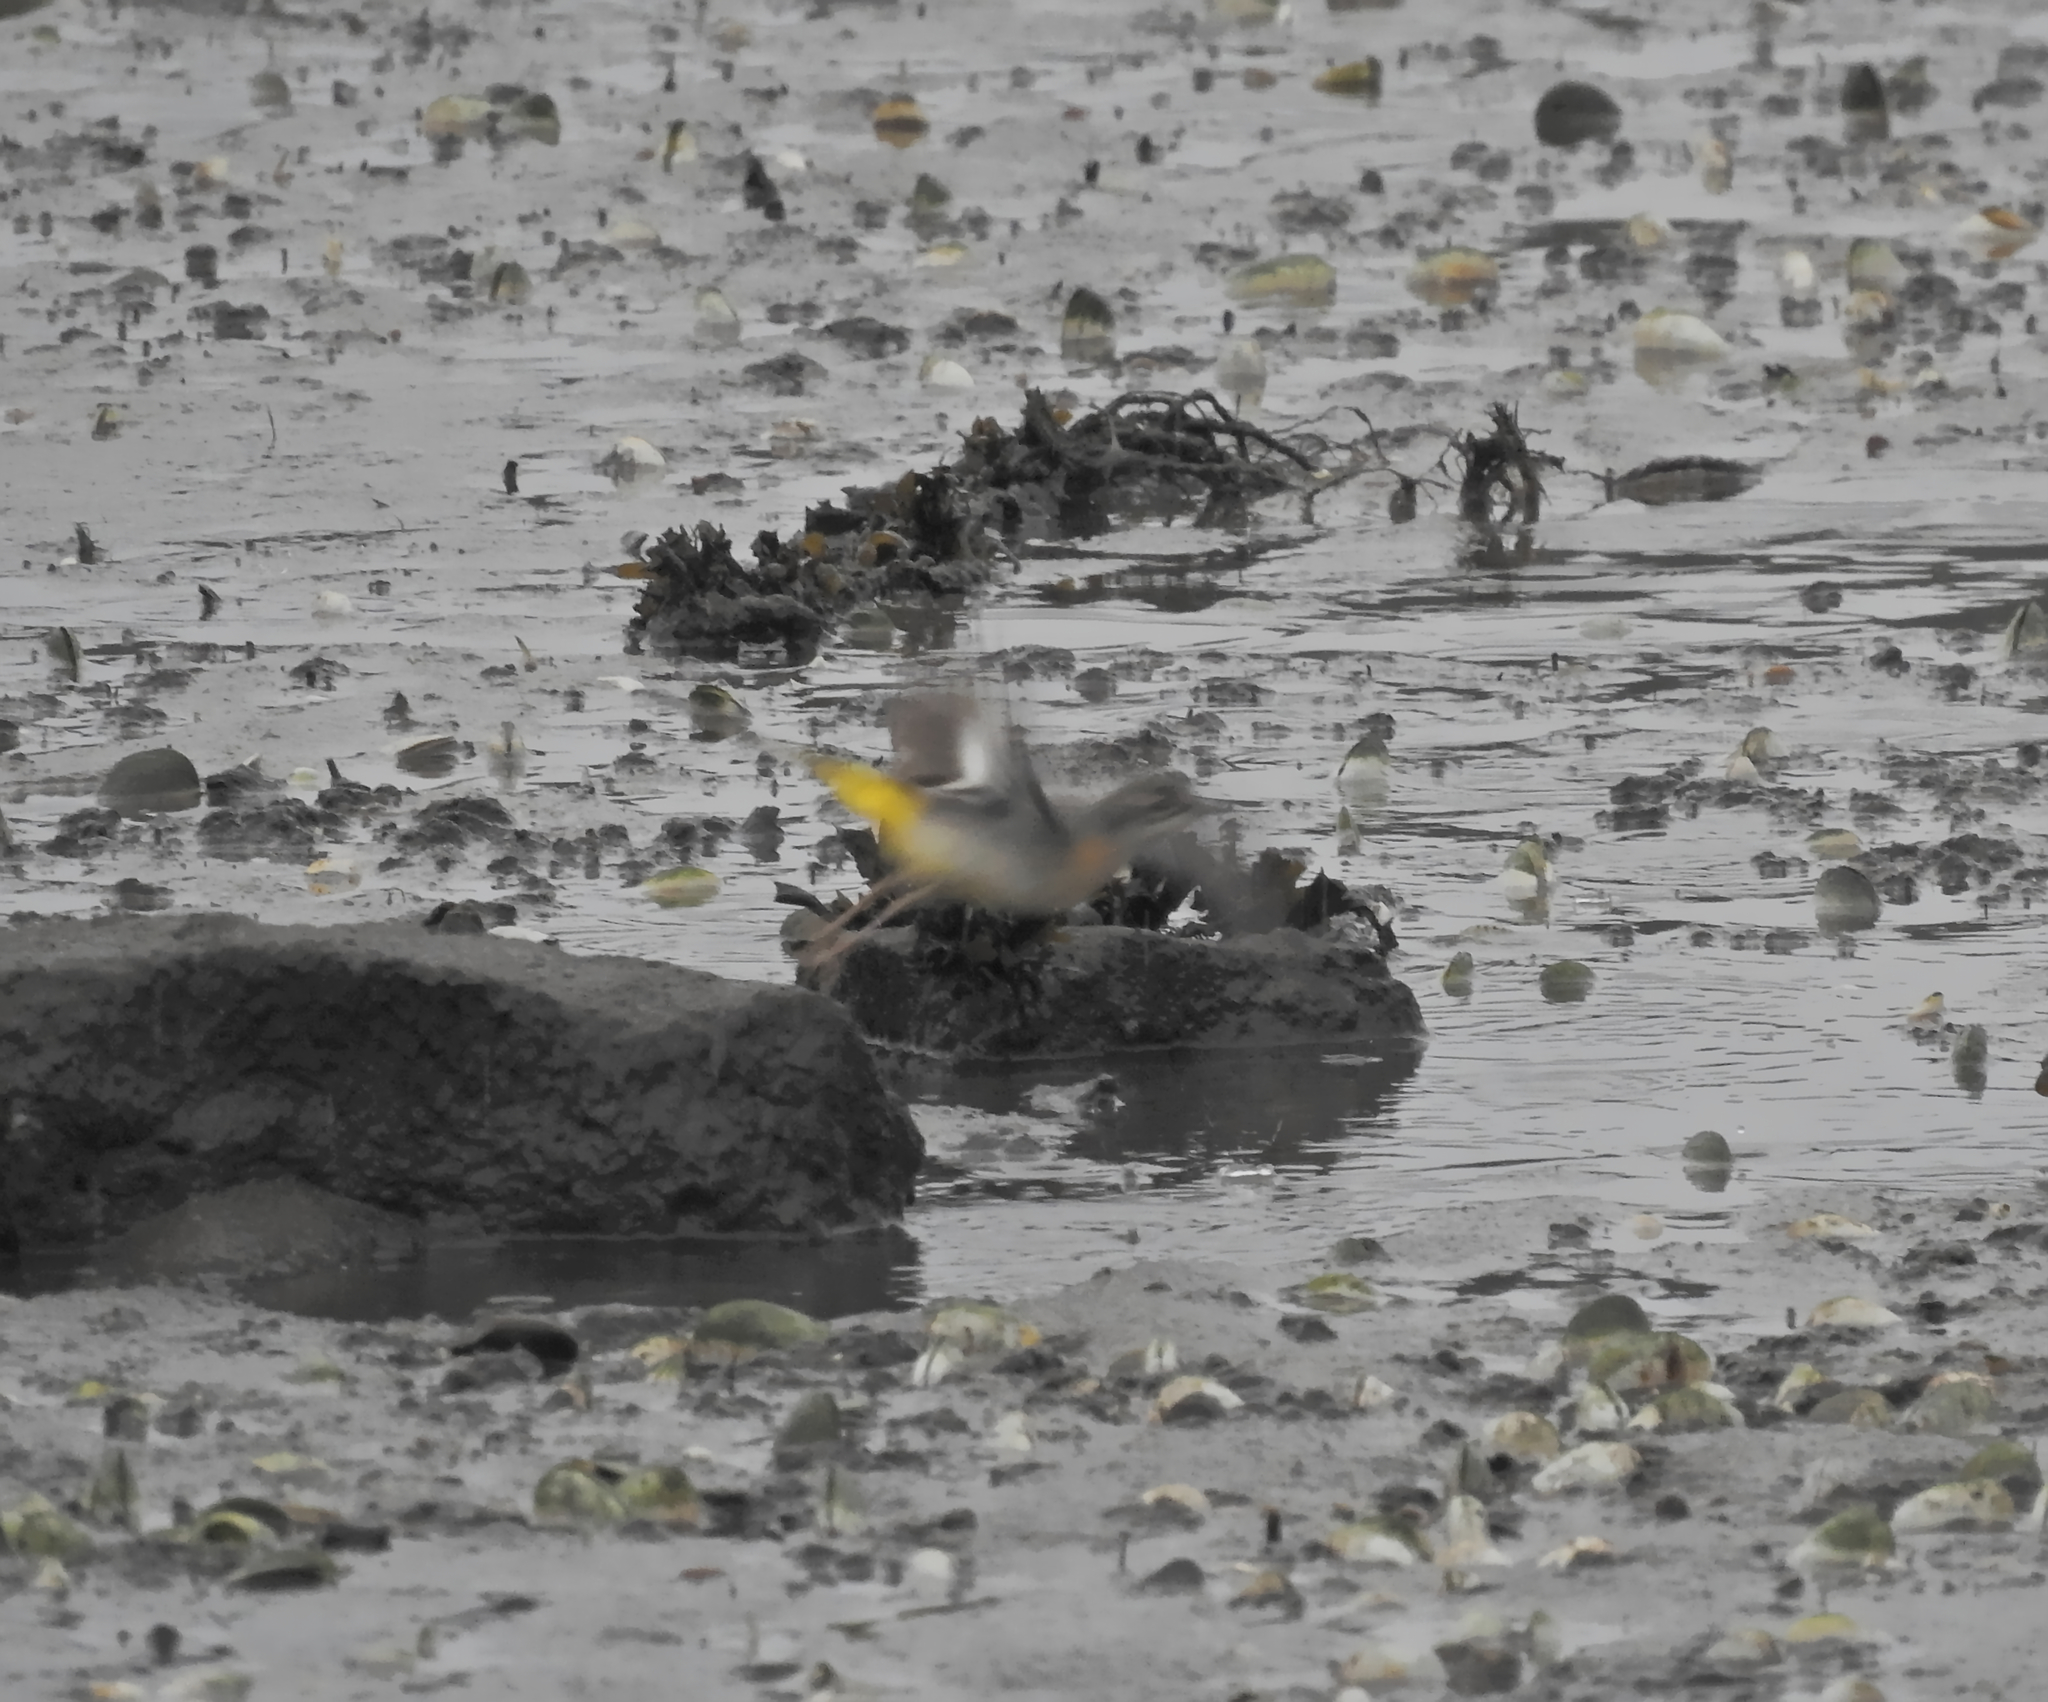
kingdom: Animalia
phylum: Chordata
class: Aves
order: Passeriformes
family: Motacillidae
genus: Motacilla
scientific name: Motacilla cinerea
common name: Grey wagtail
